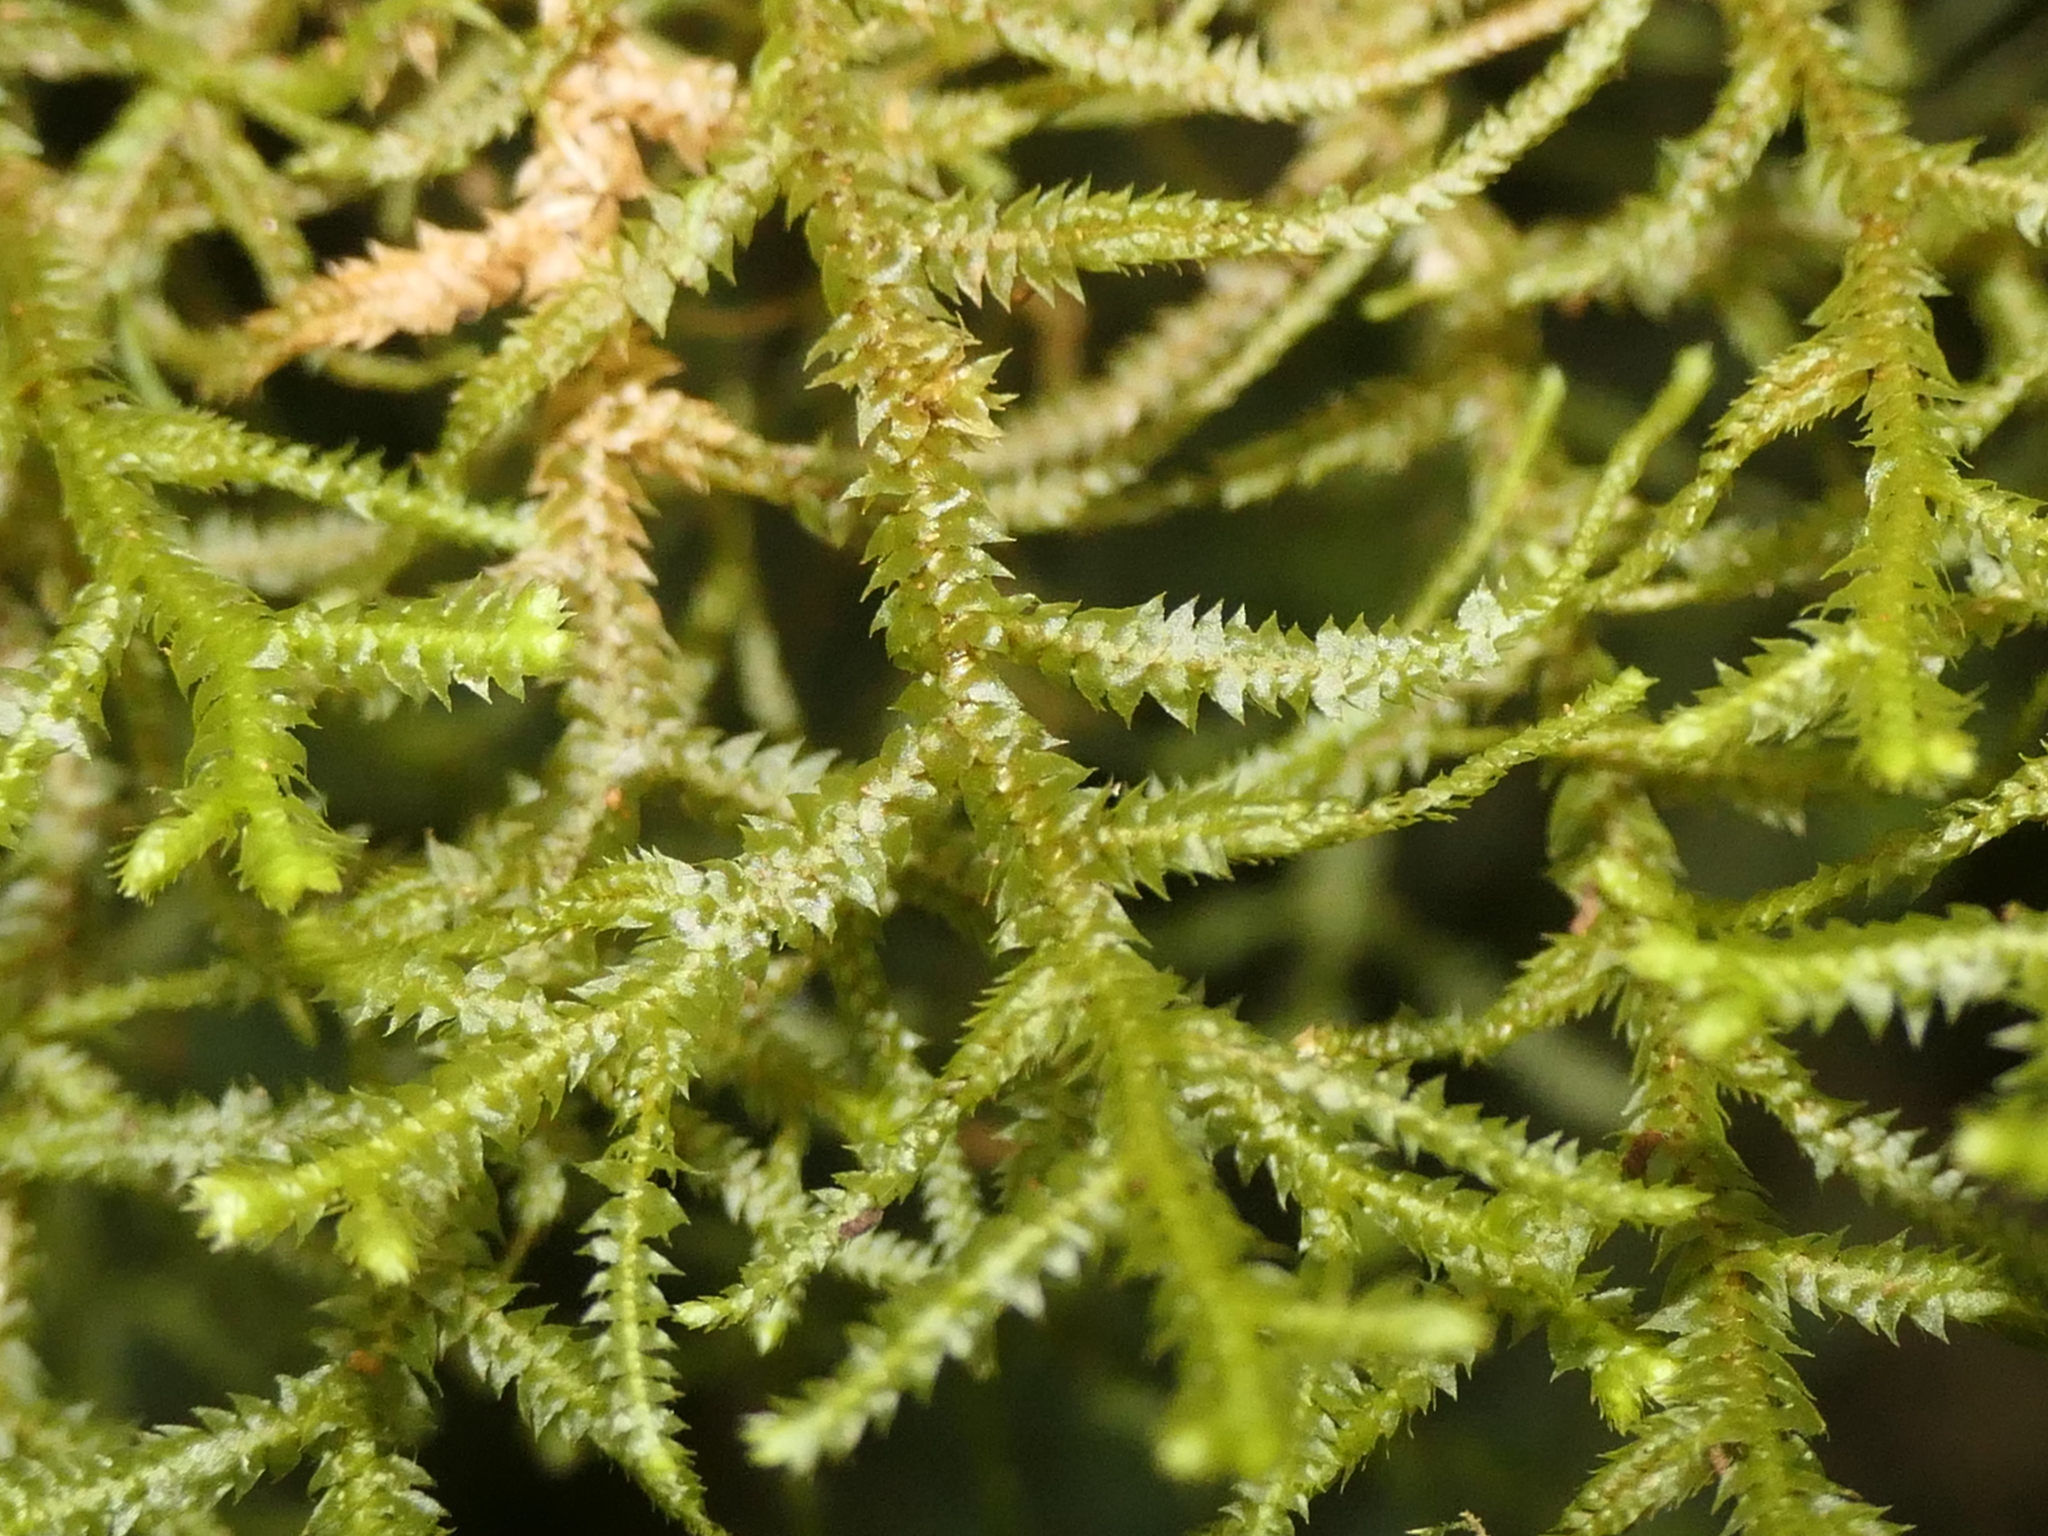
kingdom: Plantae
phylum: Marchantiophyta
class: Jungermanniopsida
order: Jungermanniales
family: Mastigophoraceae
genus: Dendromastigophora
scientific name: Dendromastigophora flagellifera
